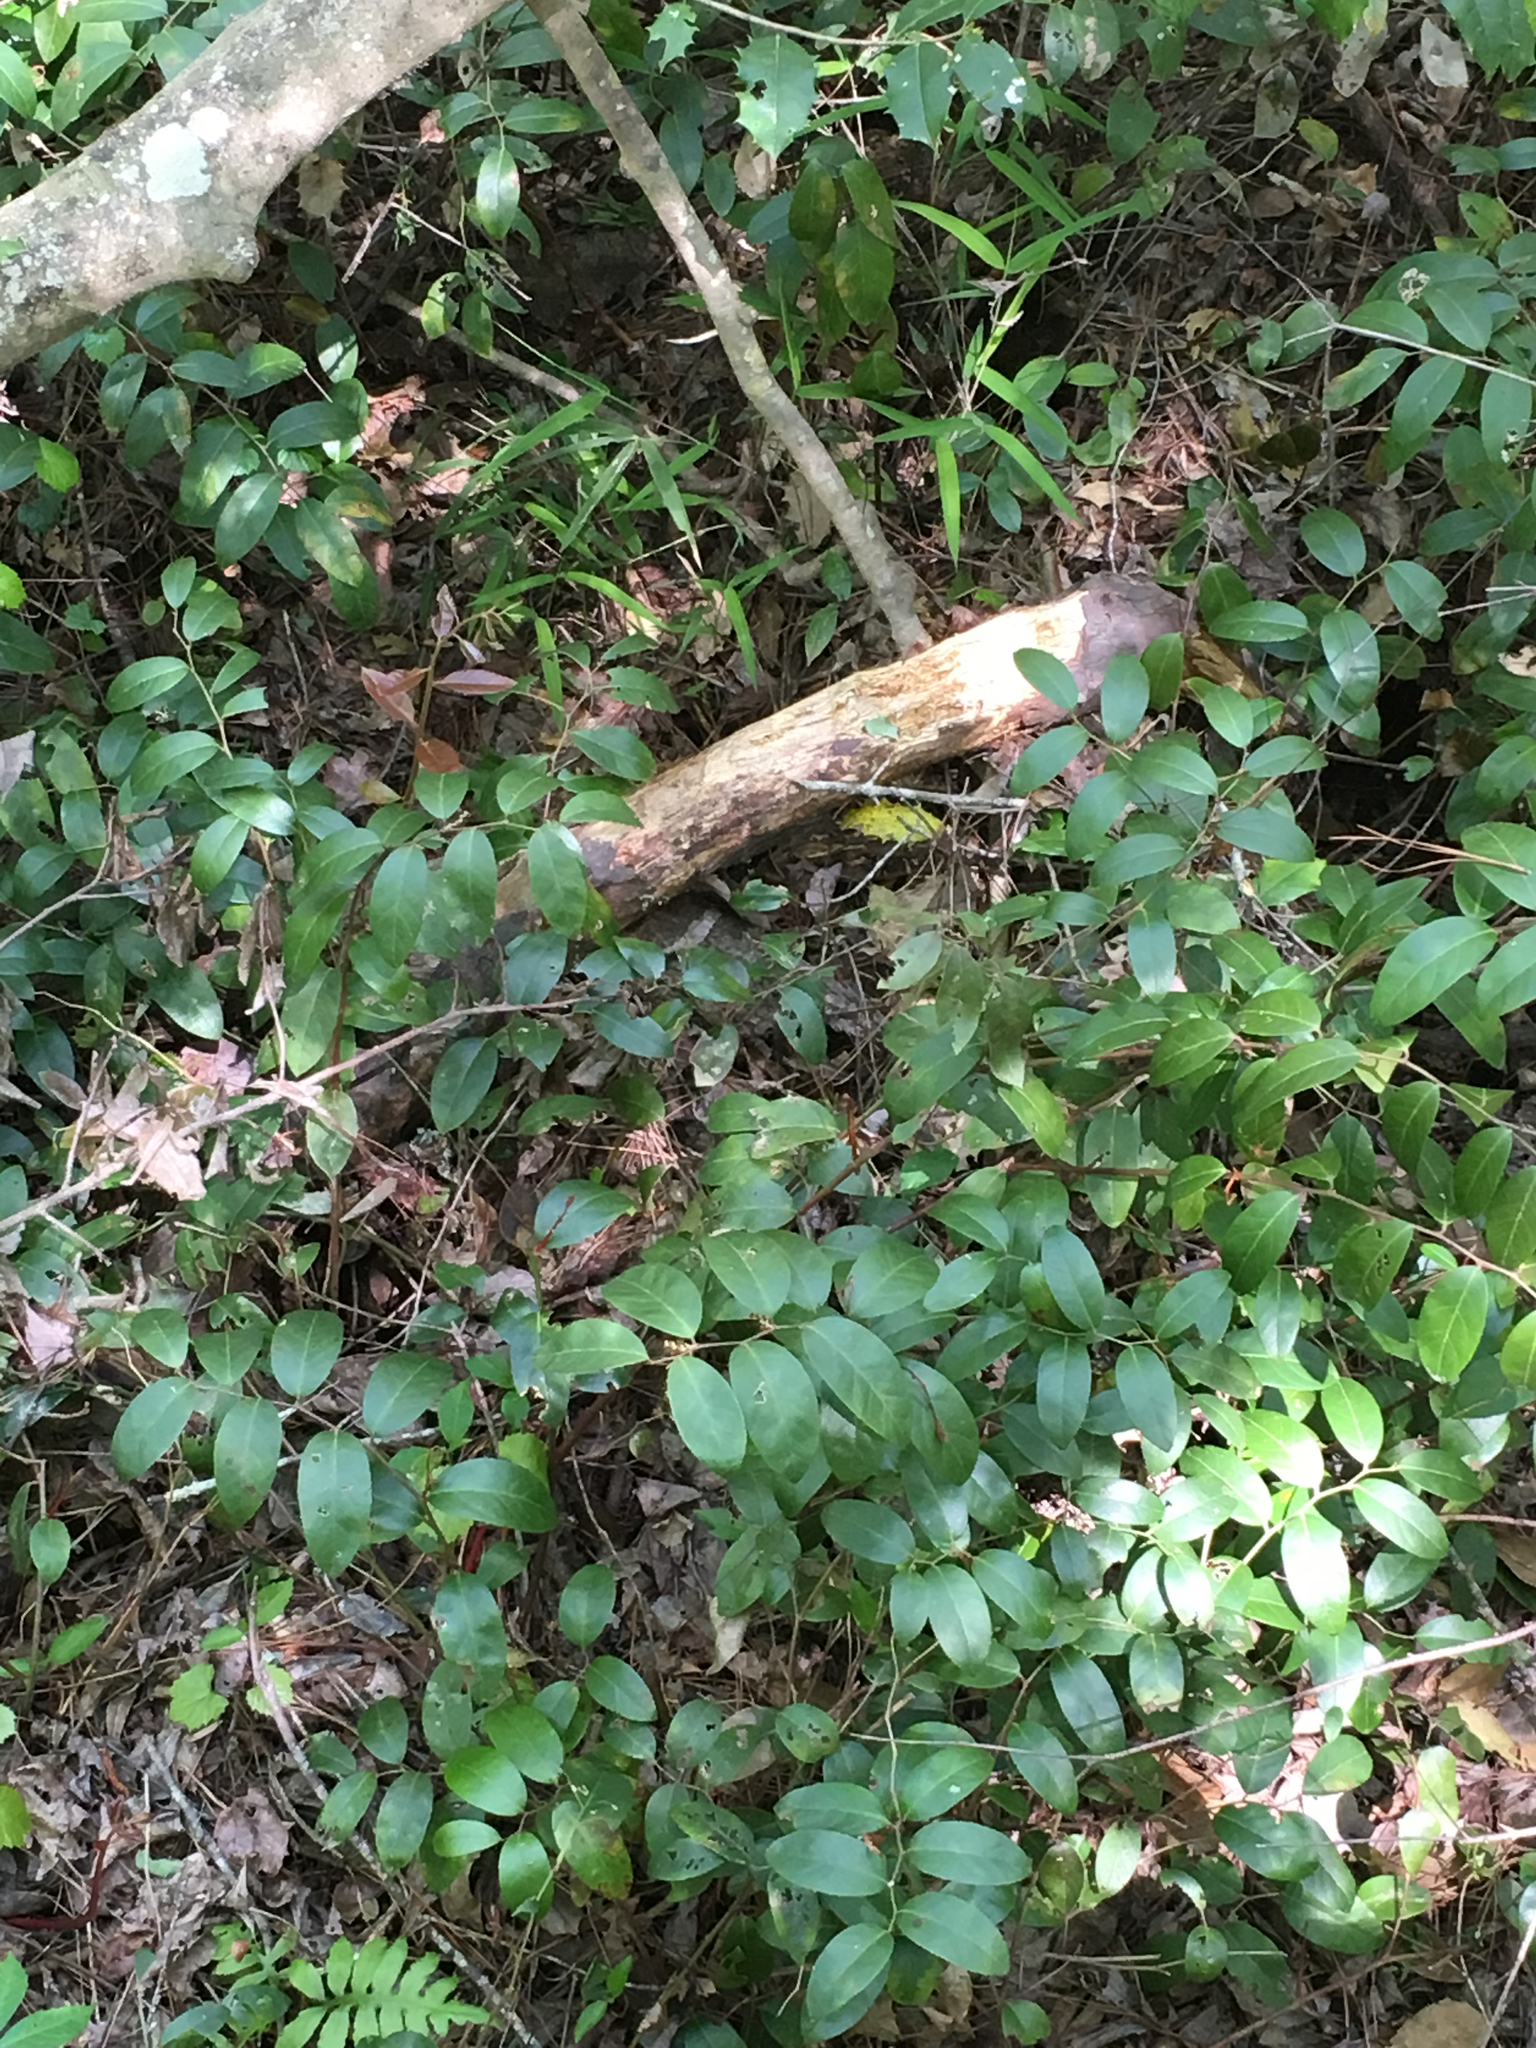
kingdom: Plantae
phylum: Tracheophyta
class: Magnoliopsida
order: Ericales
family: Ericaceae
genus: Leucothoe
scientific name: Leucothoe axillaris
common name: Leucothoe
